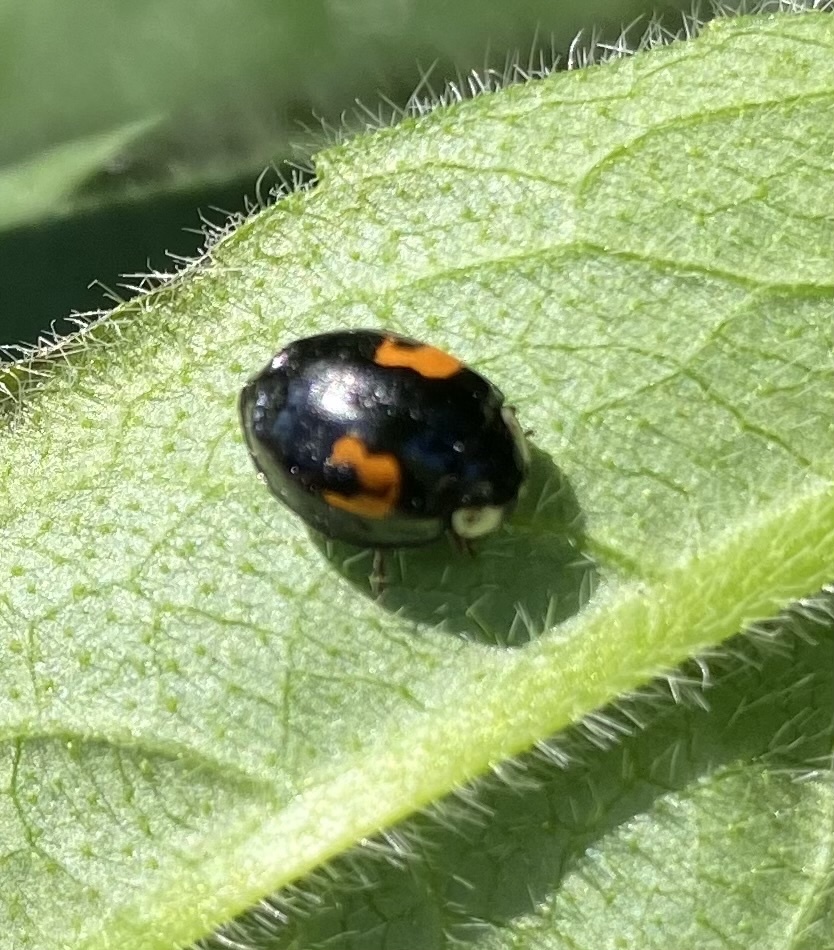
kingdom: Animalia
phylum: Arthropoda
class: Insecta
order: Coleoptera
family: Coccinellidae
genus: Harmonia
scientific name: Harmonia axyridis
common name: Harlequin ladybird
